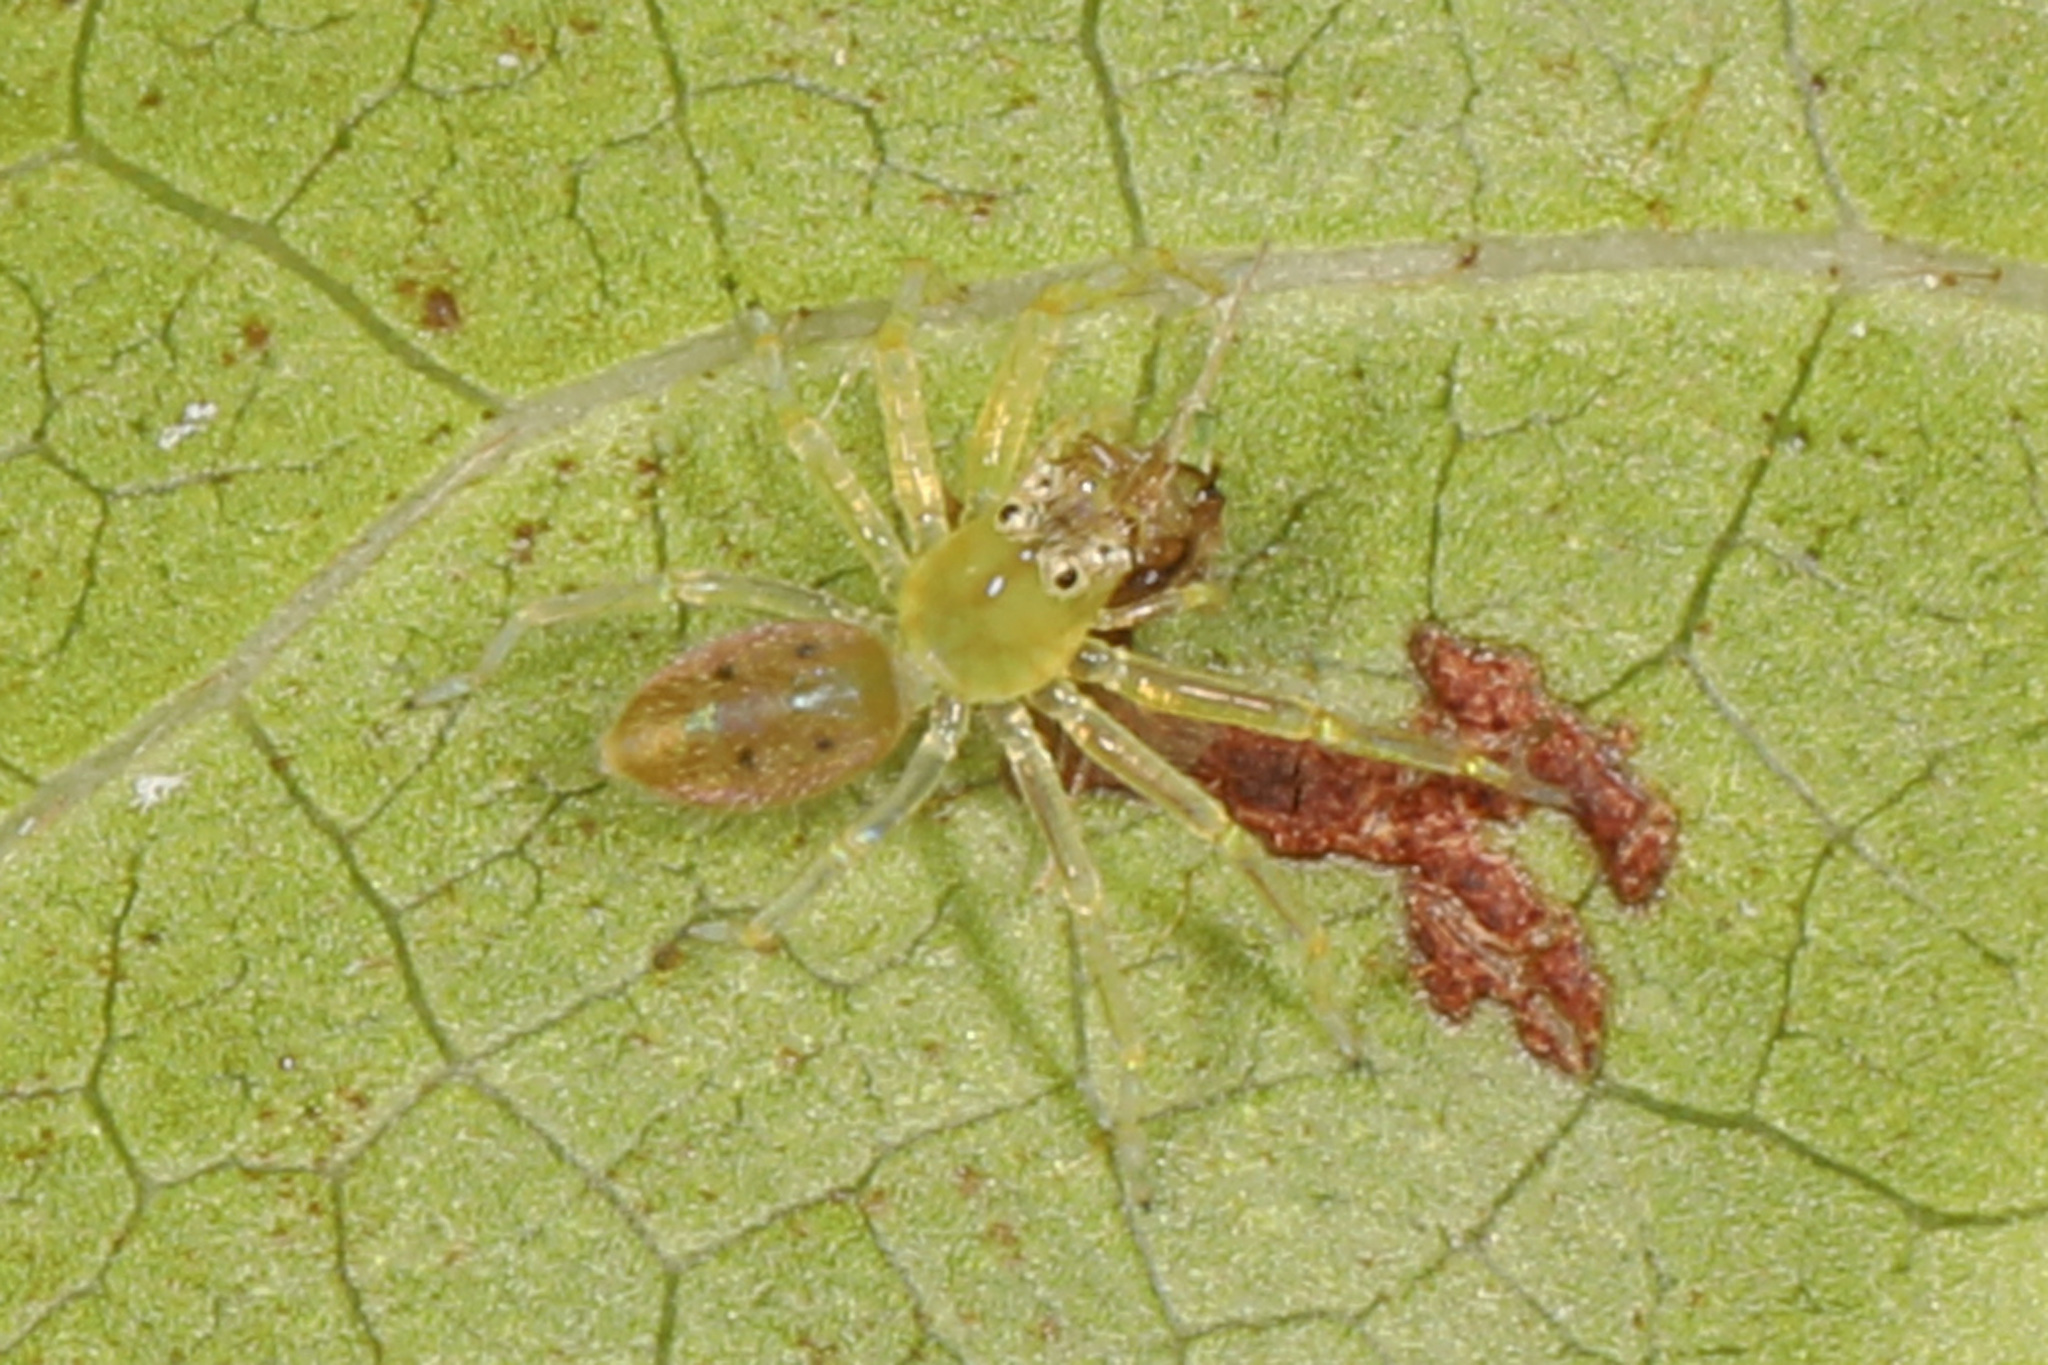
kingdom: Animalia
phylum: Arthropoda
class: Arachnida
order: Araneae
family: Salticidae
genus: Lyssomanes
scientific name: Lyssomanes viridis
